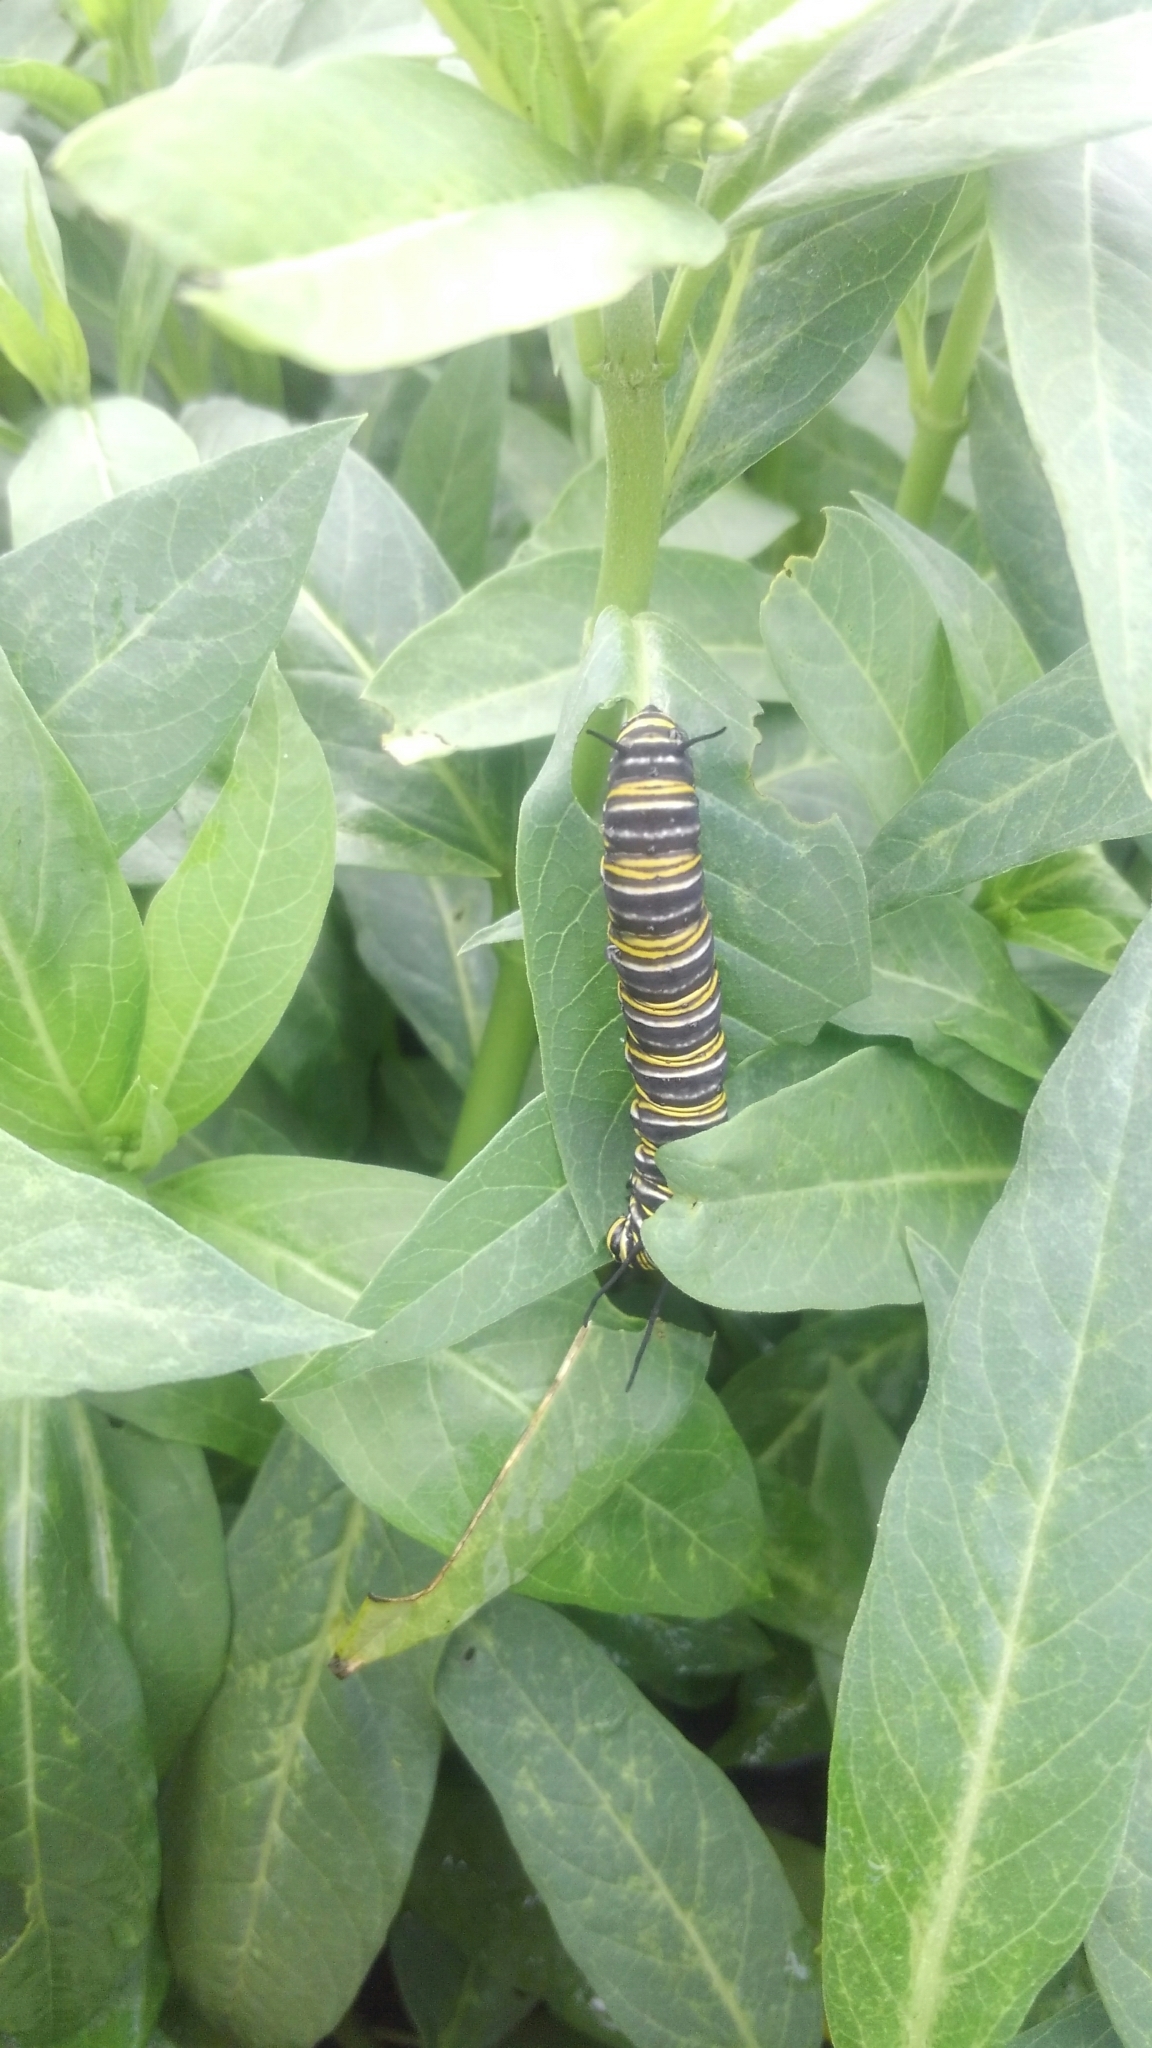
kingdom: Animalia
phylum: Arthropoda
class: Insecta
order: Lepidoptera
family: Nymphalidae
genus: Danaus
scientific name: Danaus plexippus
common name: Monarch
